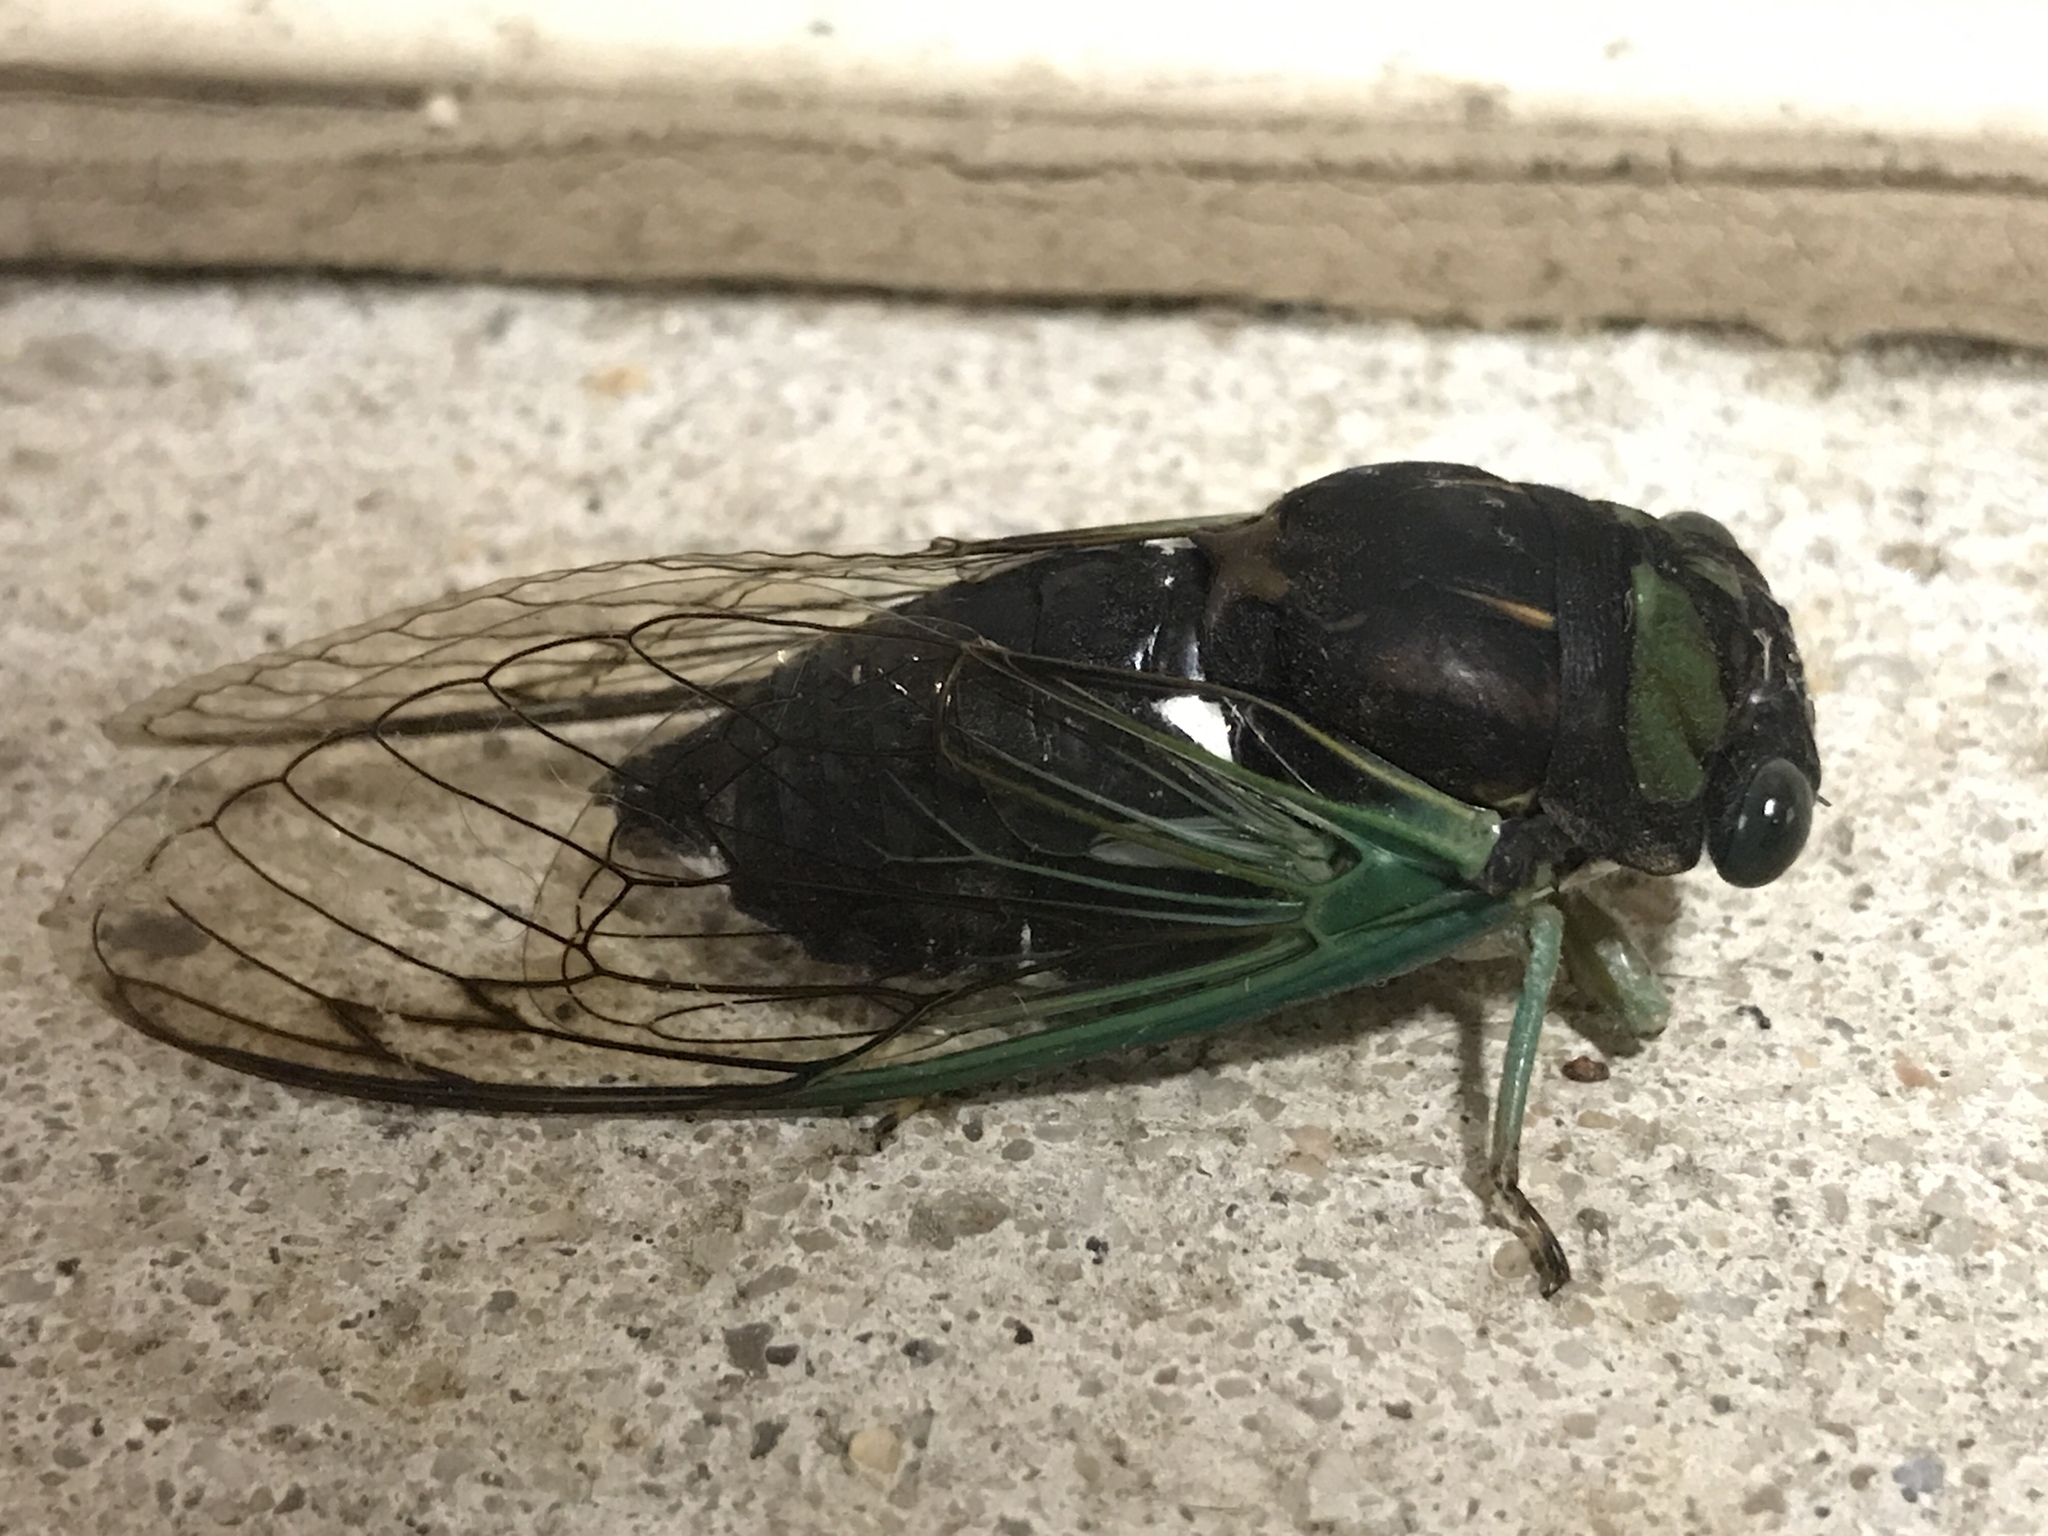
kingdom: Animalia
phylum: Arthropoda
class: Insecta
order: Hemiptera
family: Cicadidae
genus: Neotibicen
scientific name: Neotibicen tibicen
